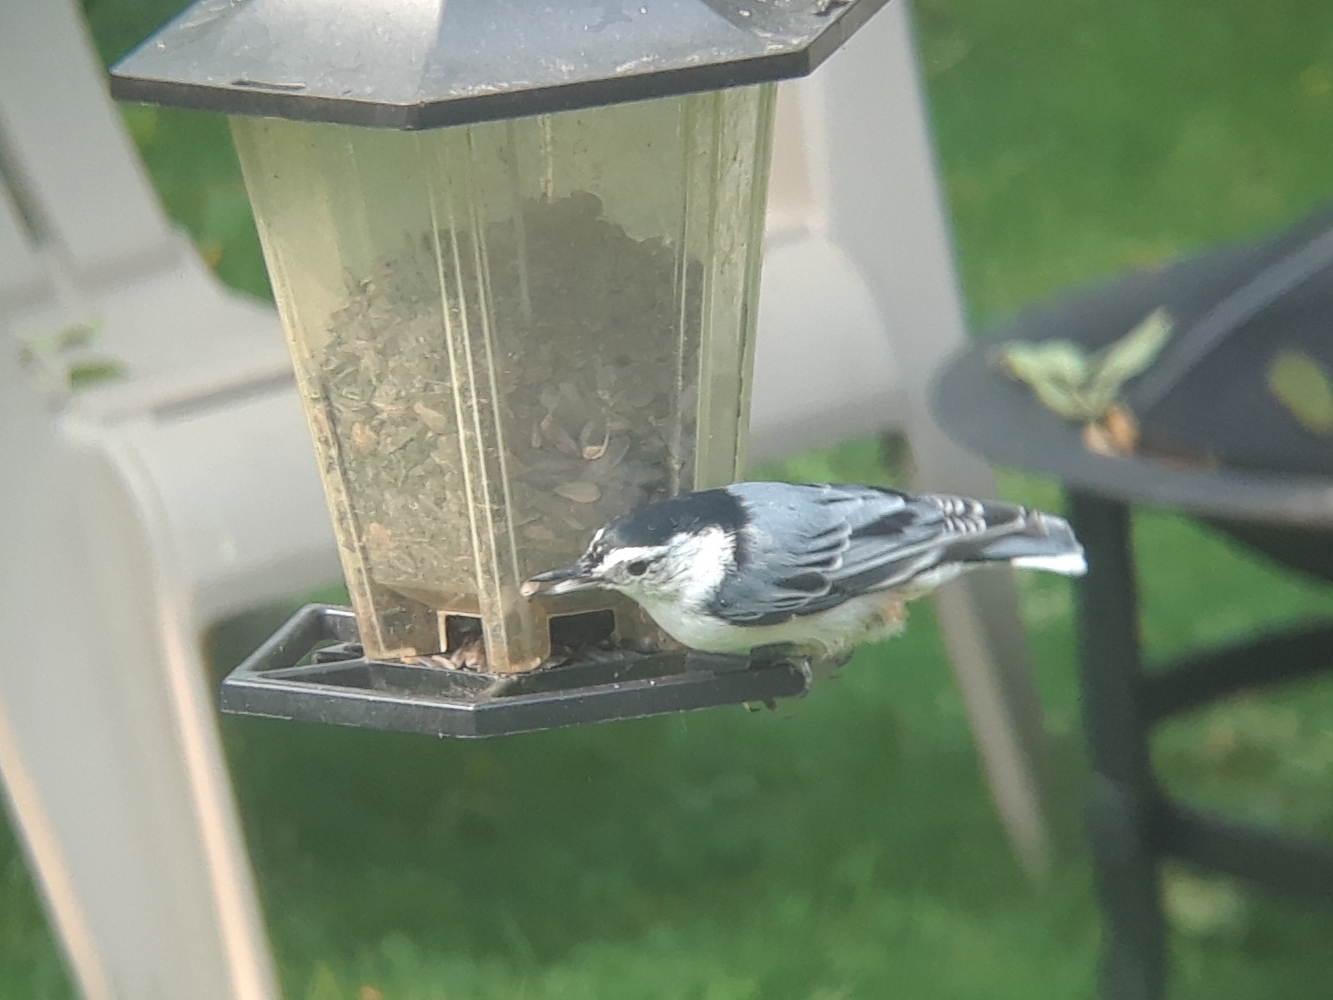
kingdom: Animalia
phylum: Chordata
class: Aves
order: Passeriformes
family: Sittidae
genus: Sitta
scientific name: Sitta carolinensis
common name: White-breasted nuthatch
